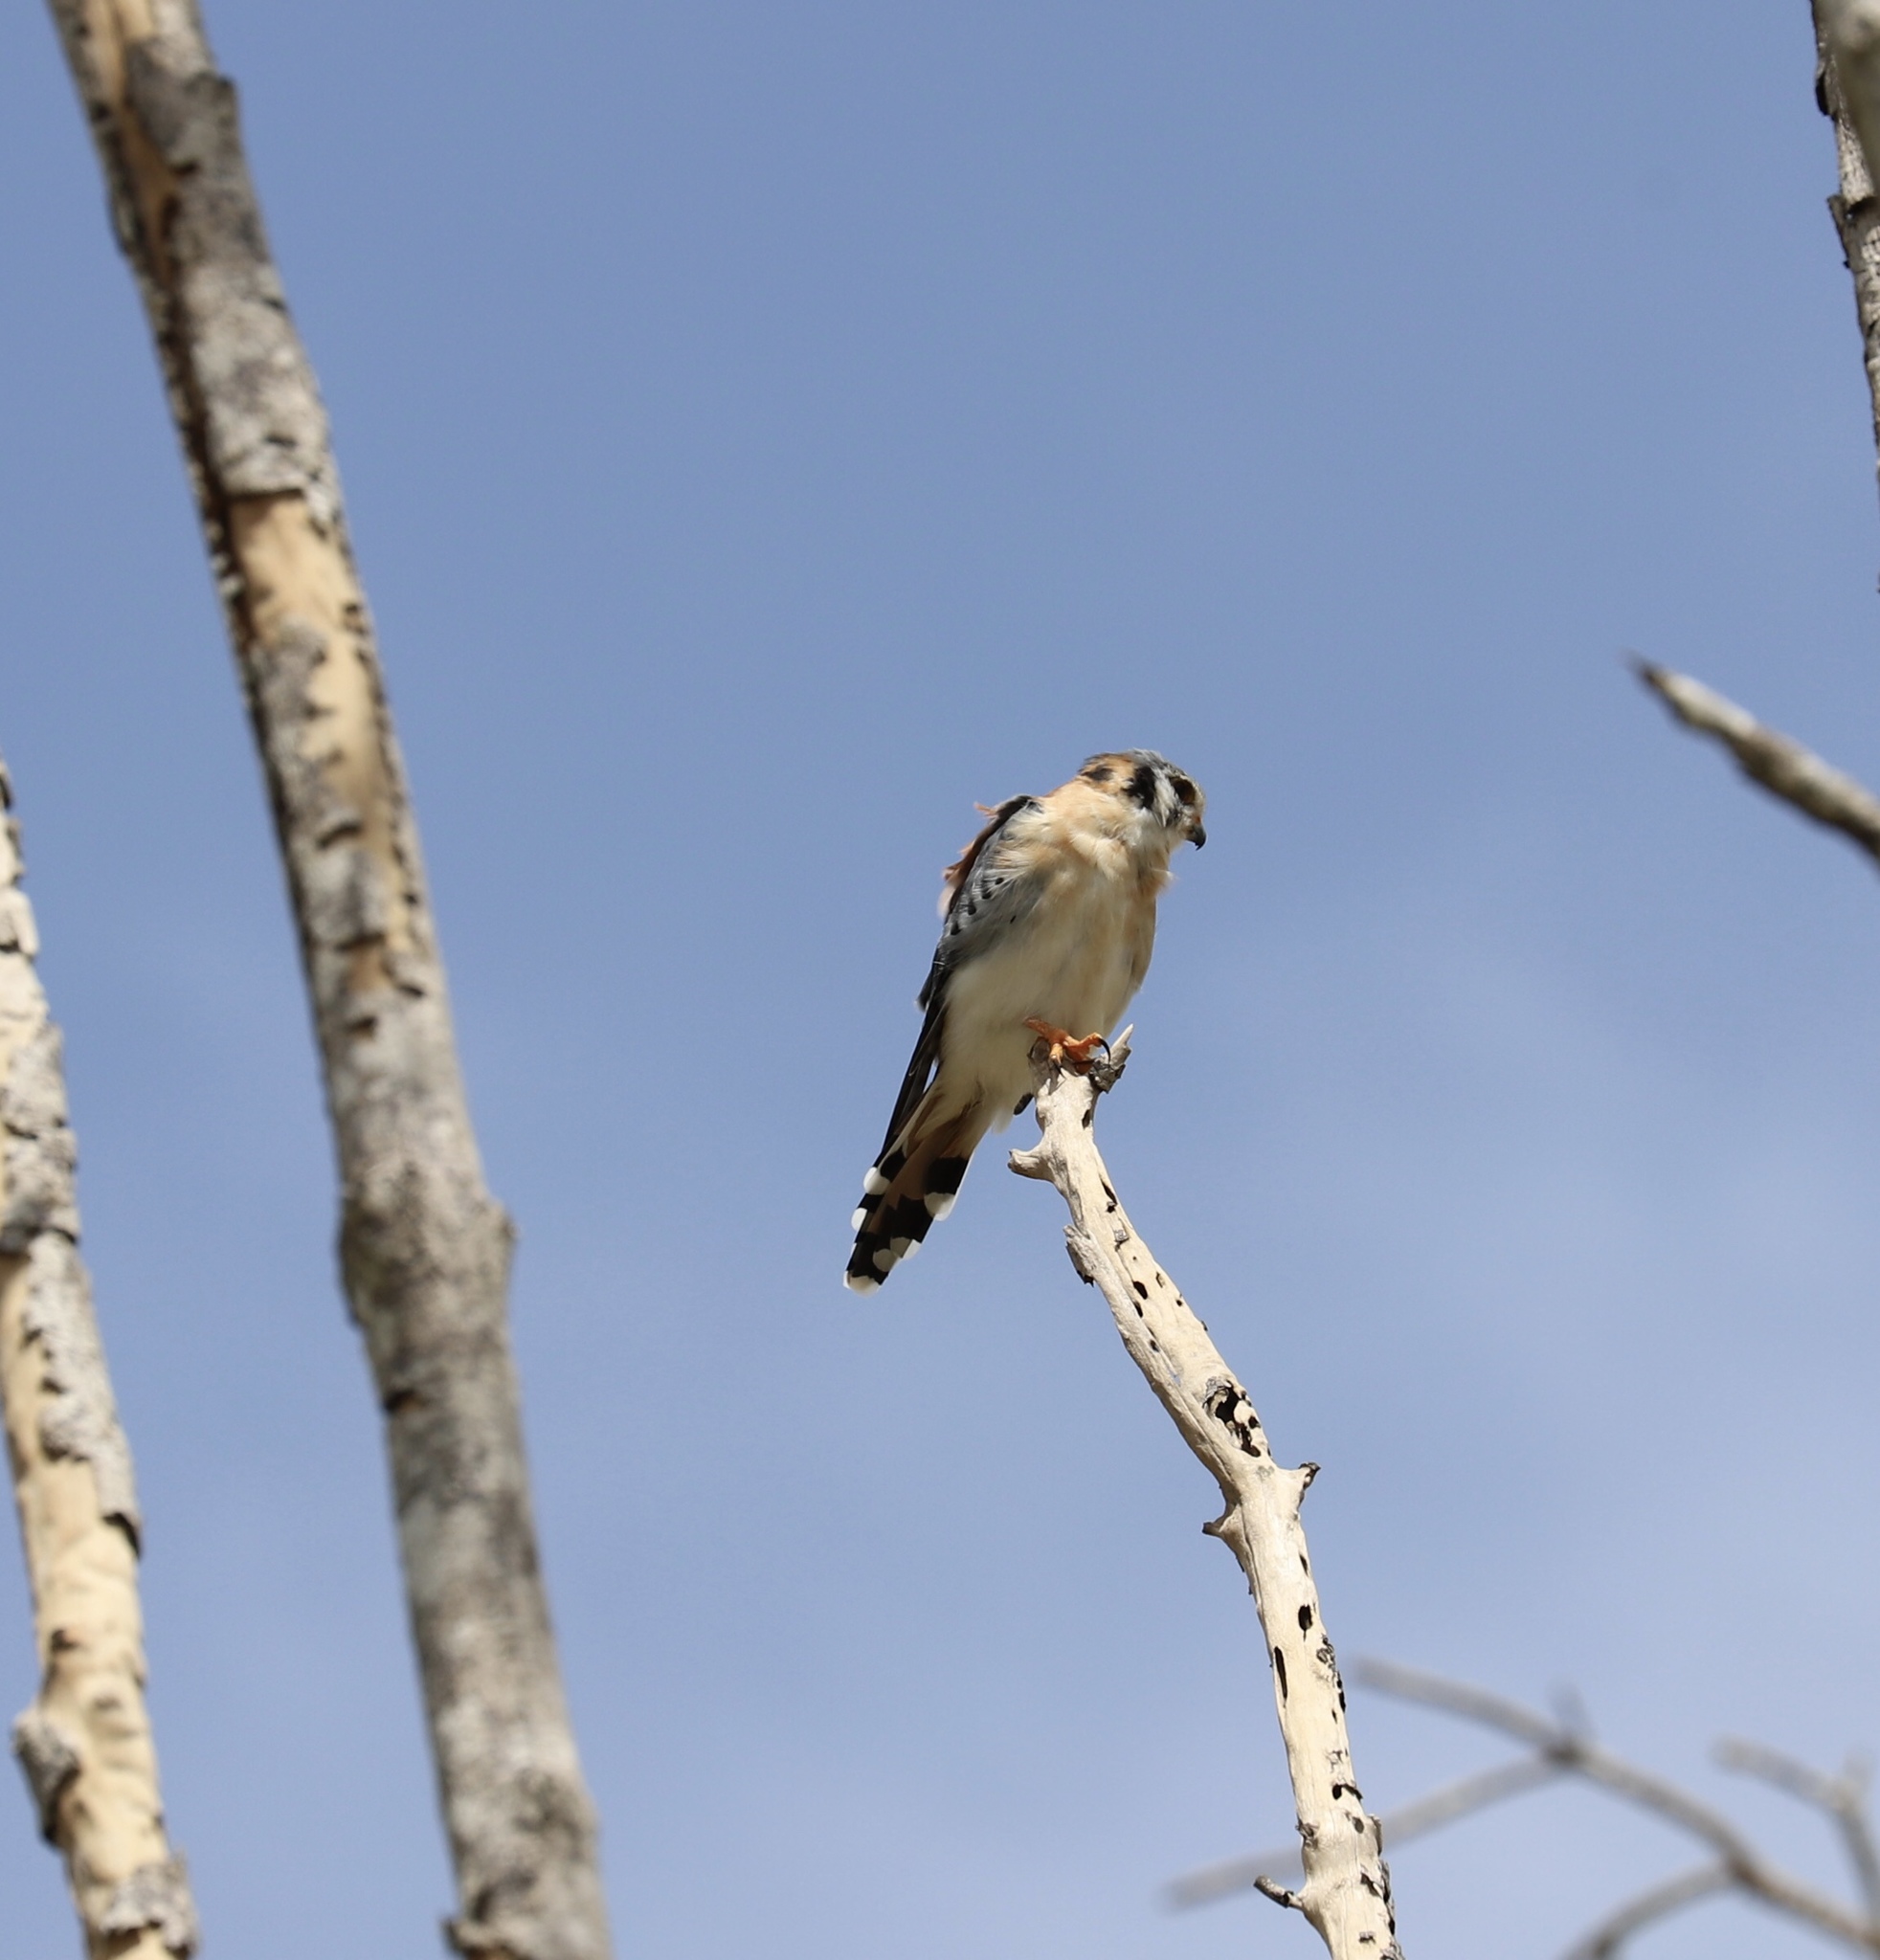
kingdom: Animalia
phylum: Chordata
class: Aves
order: Falconiformes
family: Falconidae
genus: Falco
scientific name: Falco sparverius
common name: American kestrel
